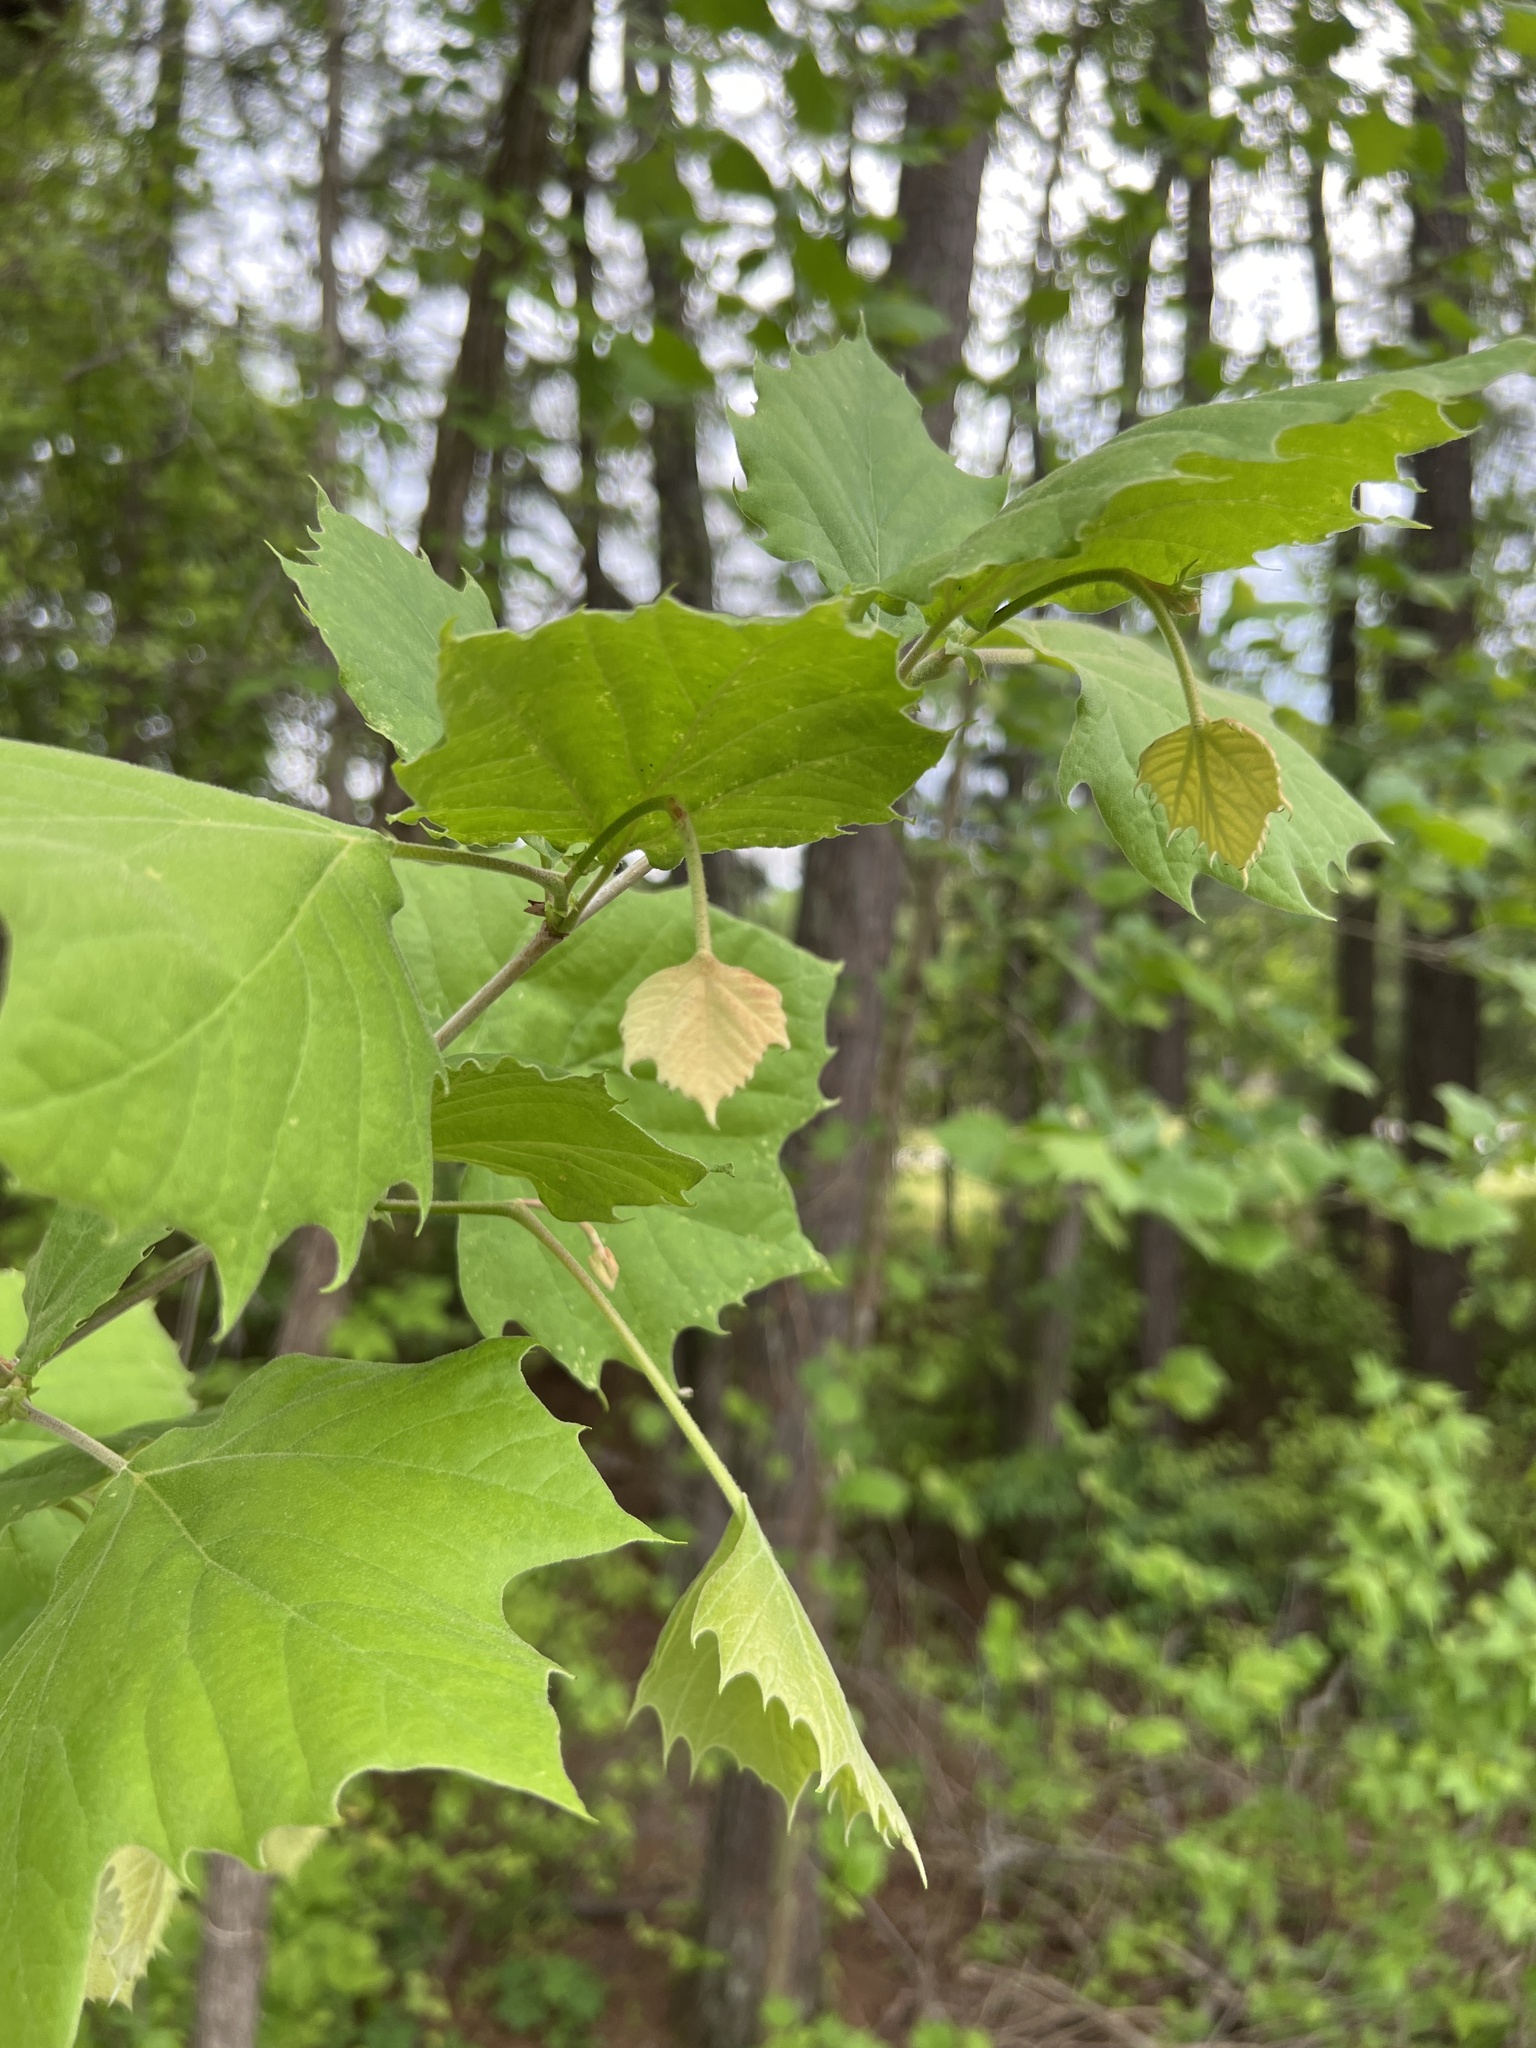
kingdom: Plantae
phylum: Tracheophyta
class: Magnoliopsida
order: Proteales
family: Platanaceae
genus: Platanus
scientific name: Platanus occidentalis
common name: American sycamore
